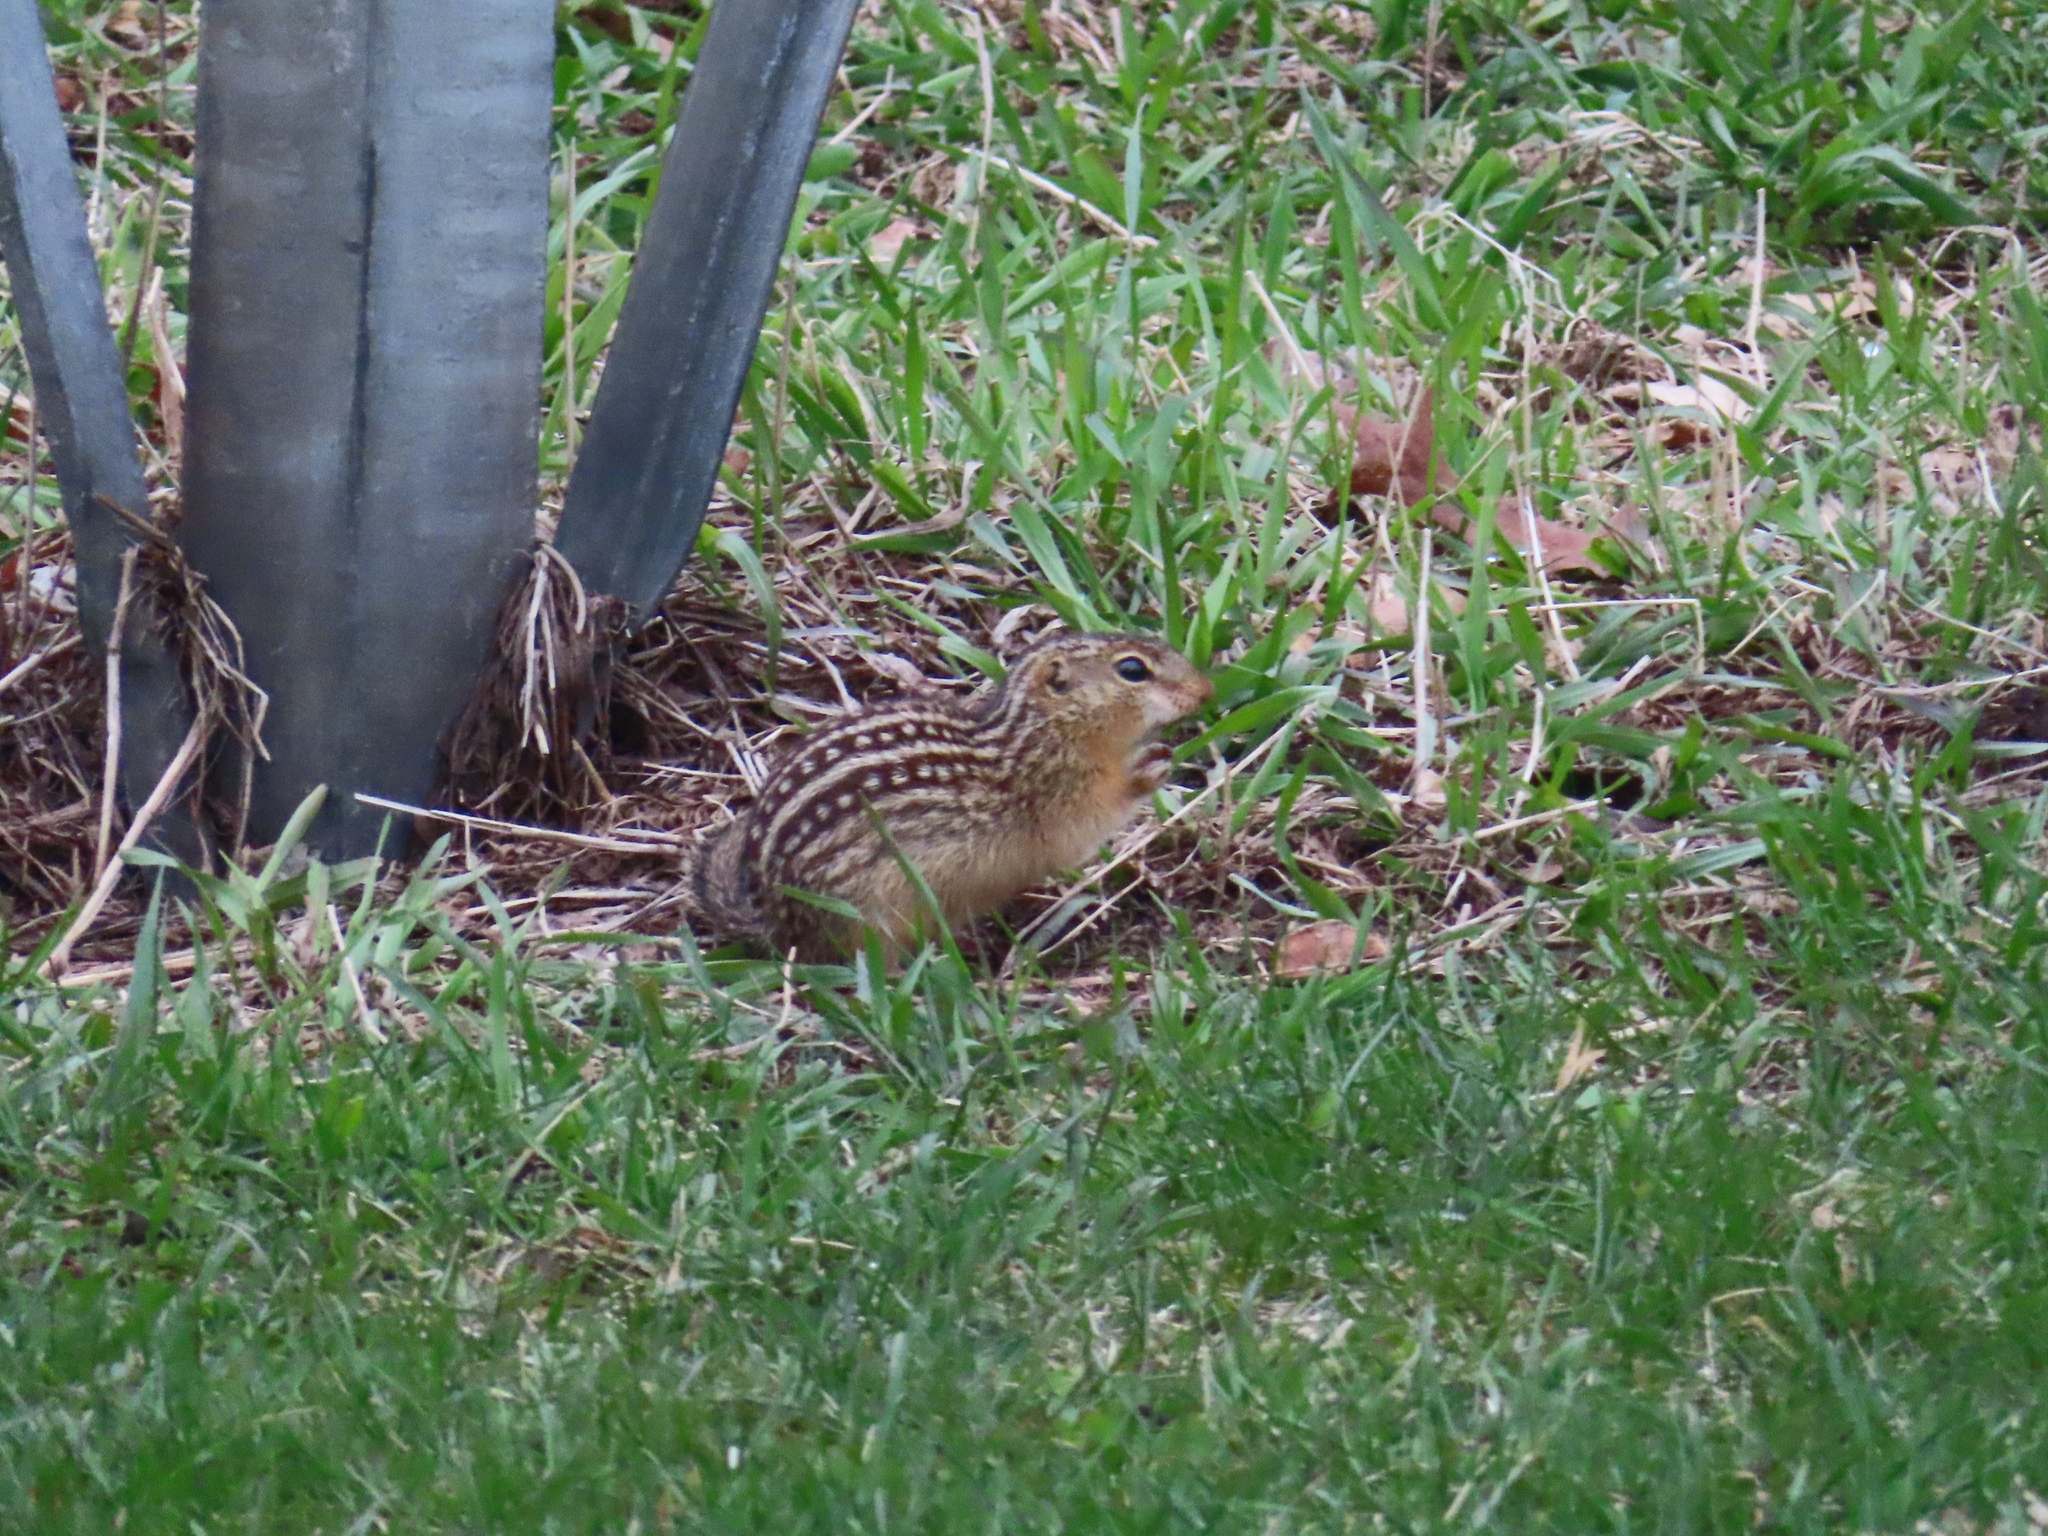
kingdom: Animalia
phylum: Chordata
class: Mammalia
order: Rodentia
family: Sciuridae
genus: Ictidomys
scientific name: Ictidomys tridecemlineatus
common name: Thirteen-lined ground squirrel
